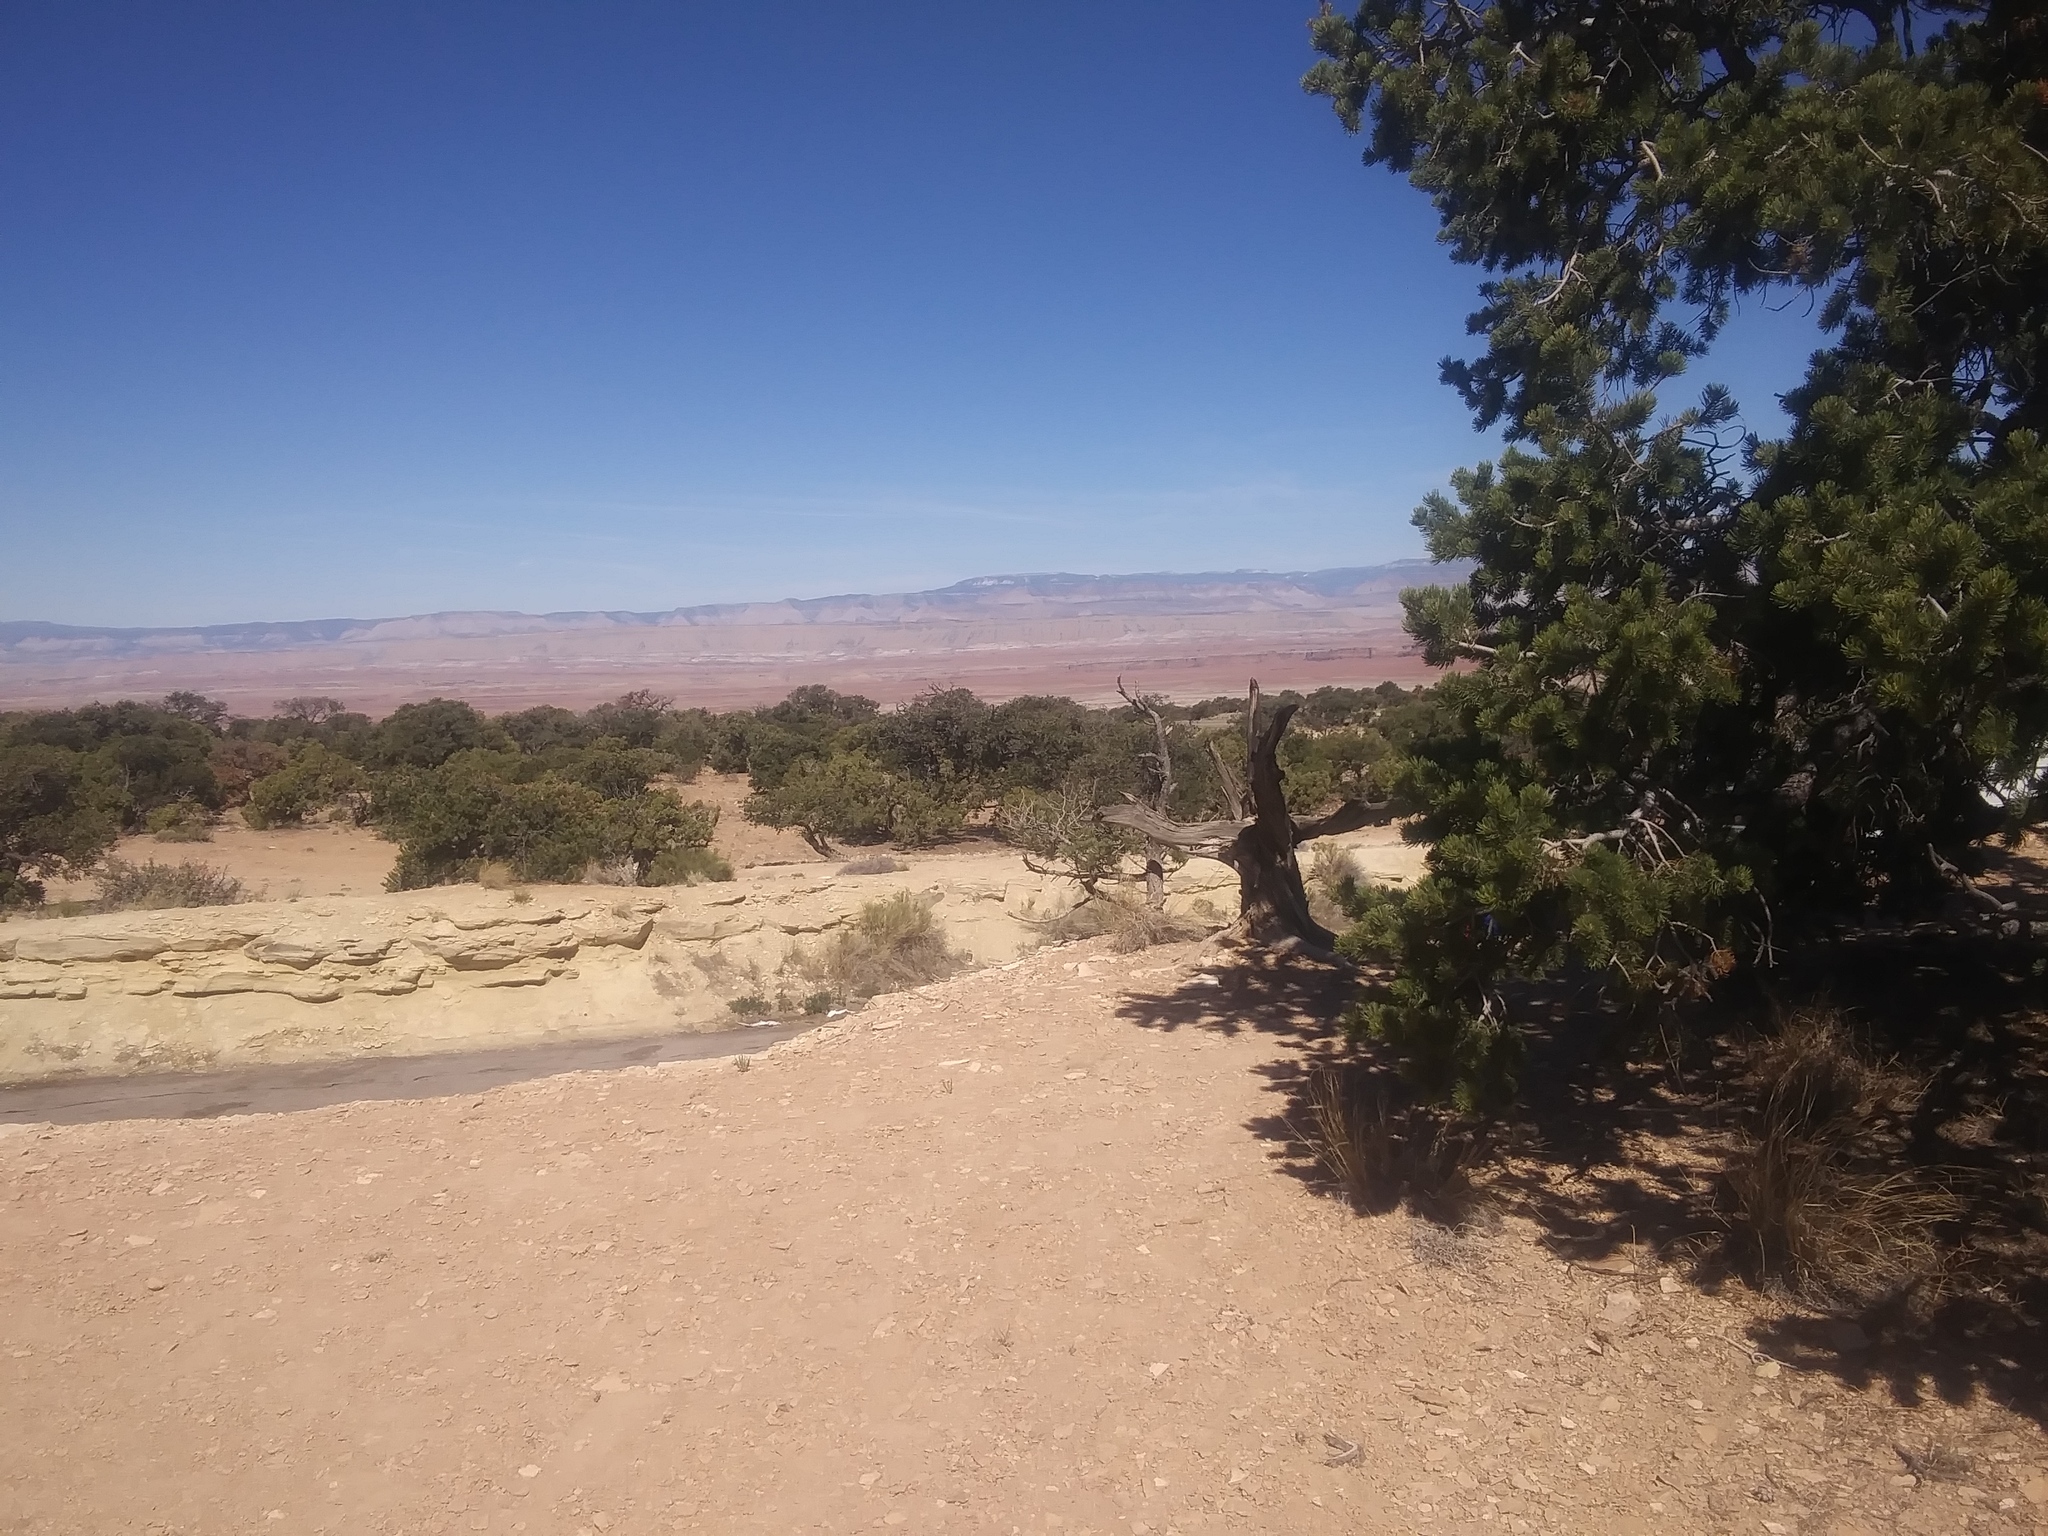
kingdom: Plantae
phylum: Tracheophyta
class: Pinopsida
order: Pinales
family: Pinaceae
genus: Pinus
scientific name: Pinus edulis
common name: Colorado pinyon
